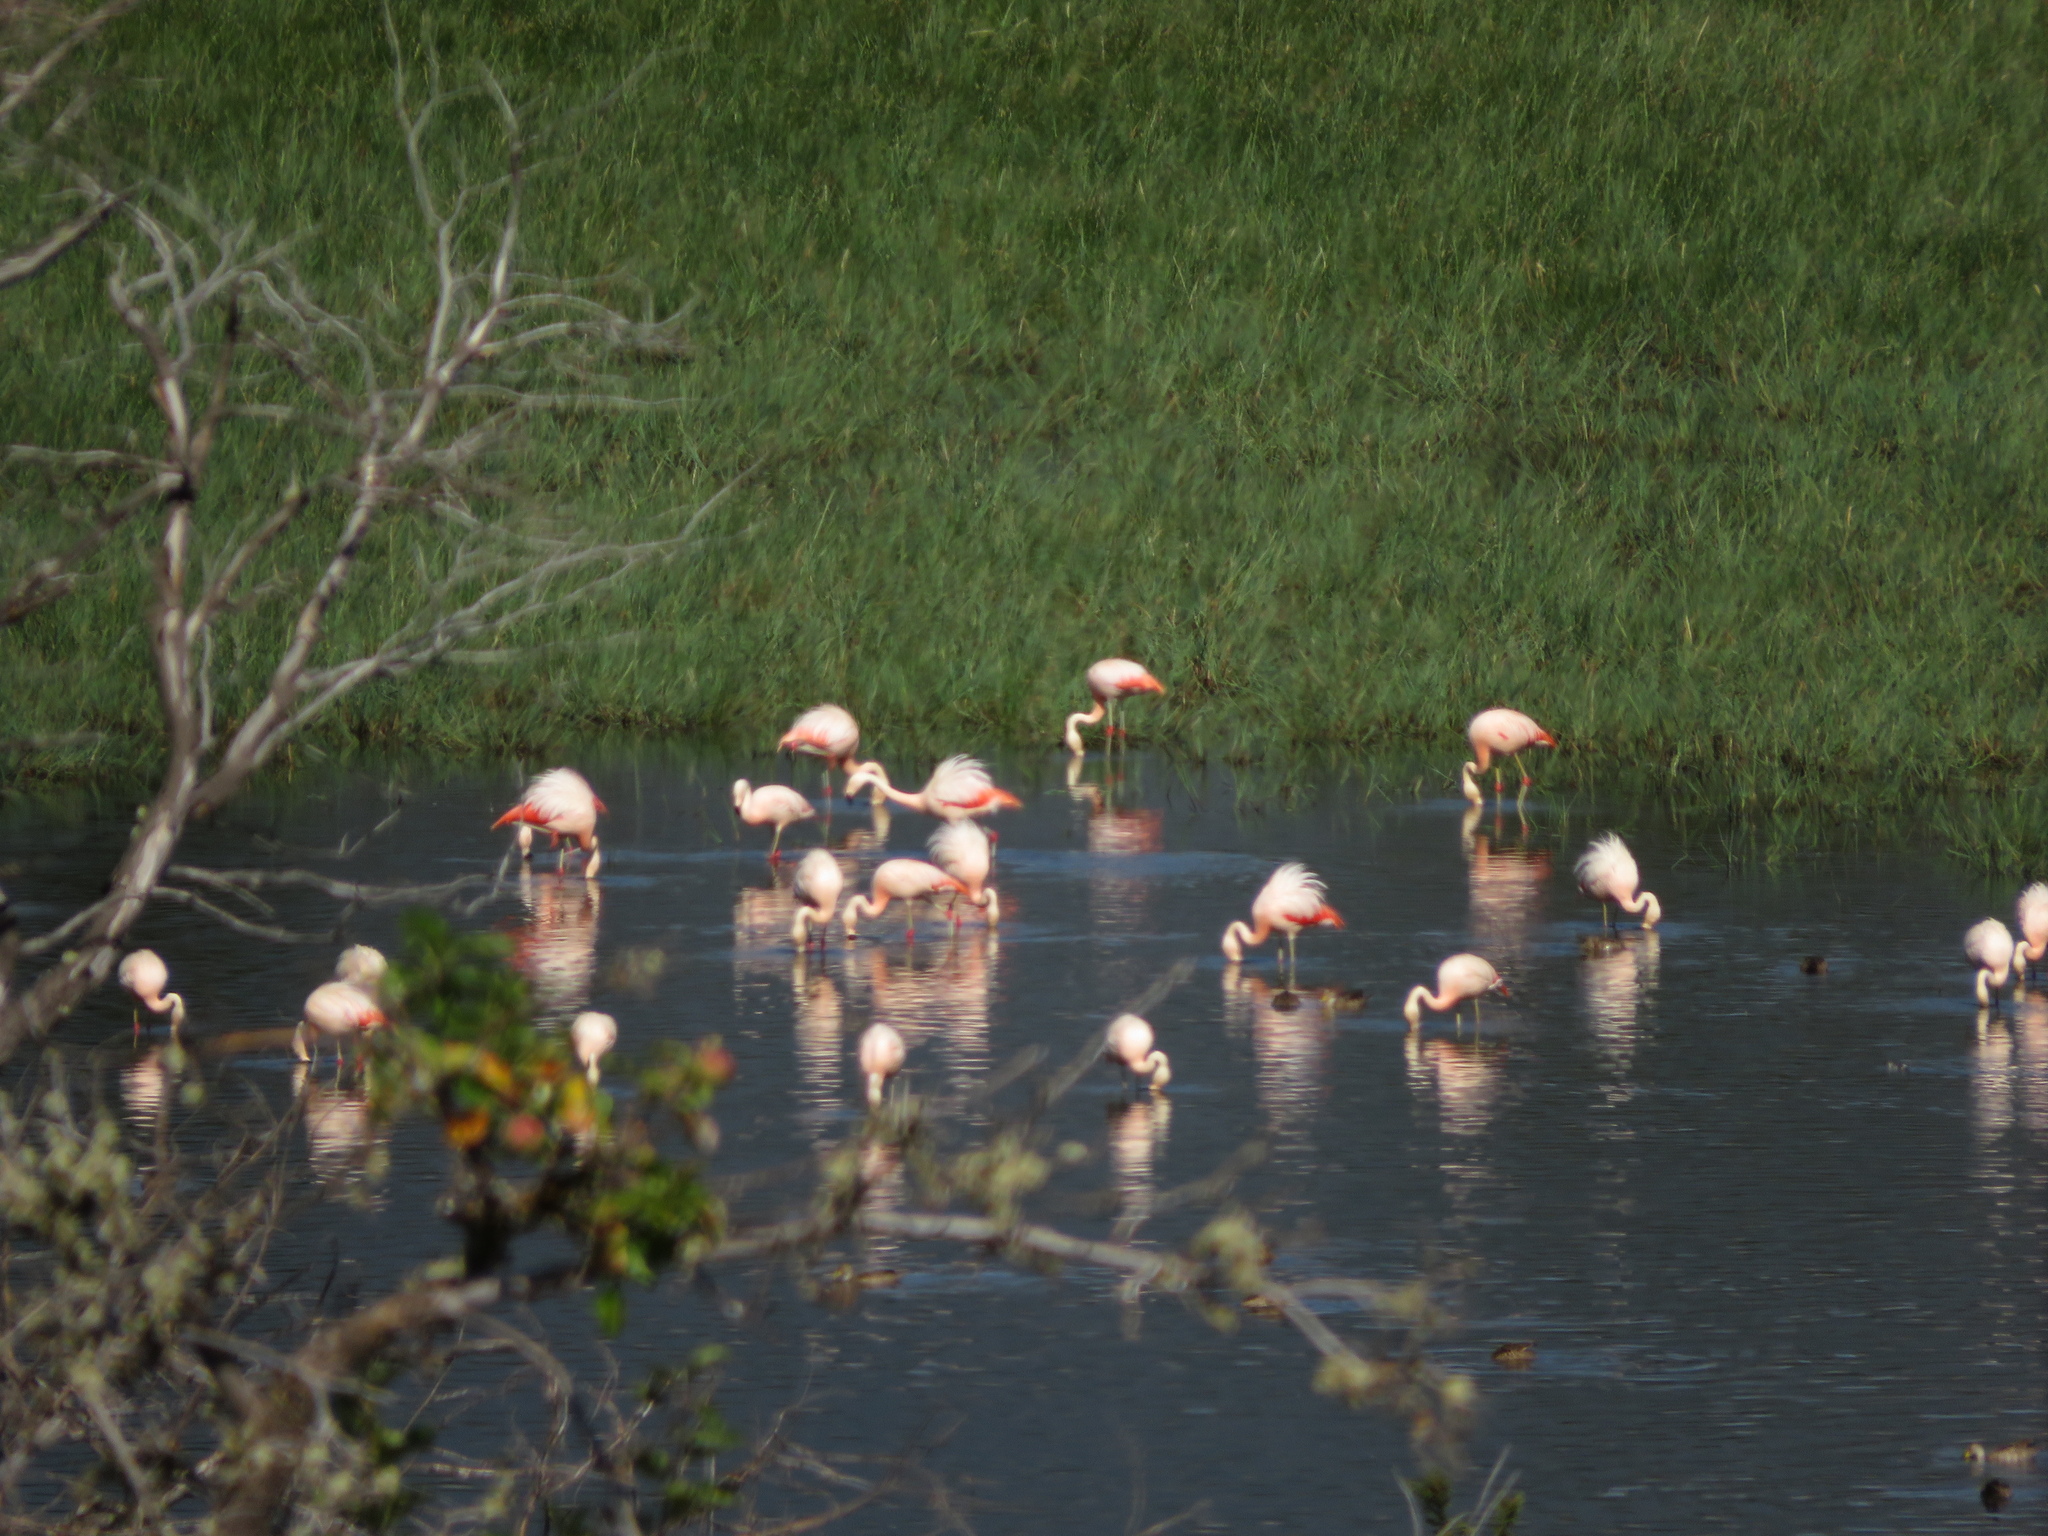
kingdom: Animalia
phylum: Chordata
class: Aves
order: Phoenicopteriformes
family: Phoenicopteridae
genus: Phoenicopterus
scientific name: Phoenicopterus chilensis
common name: Chilean flamingo
